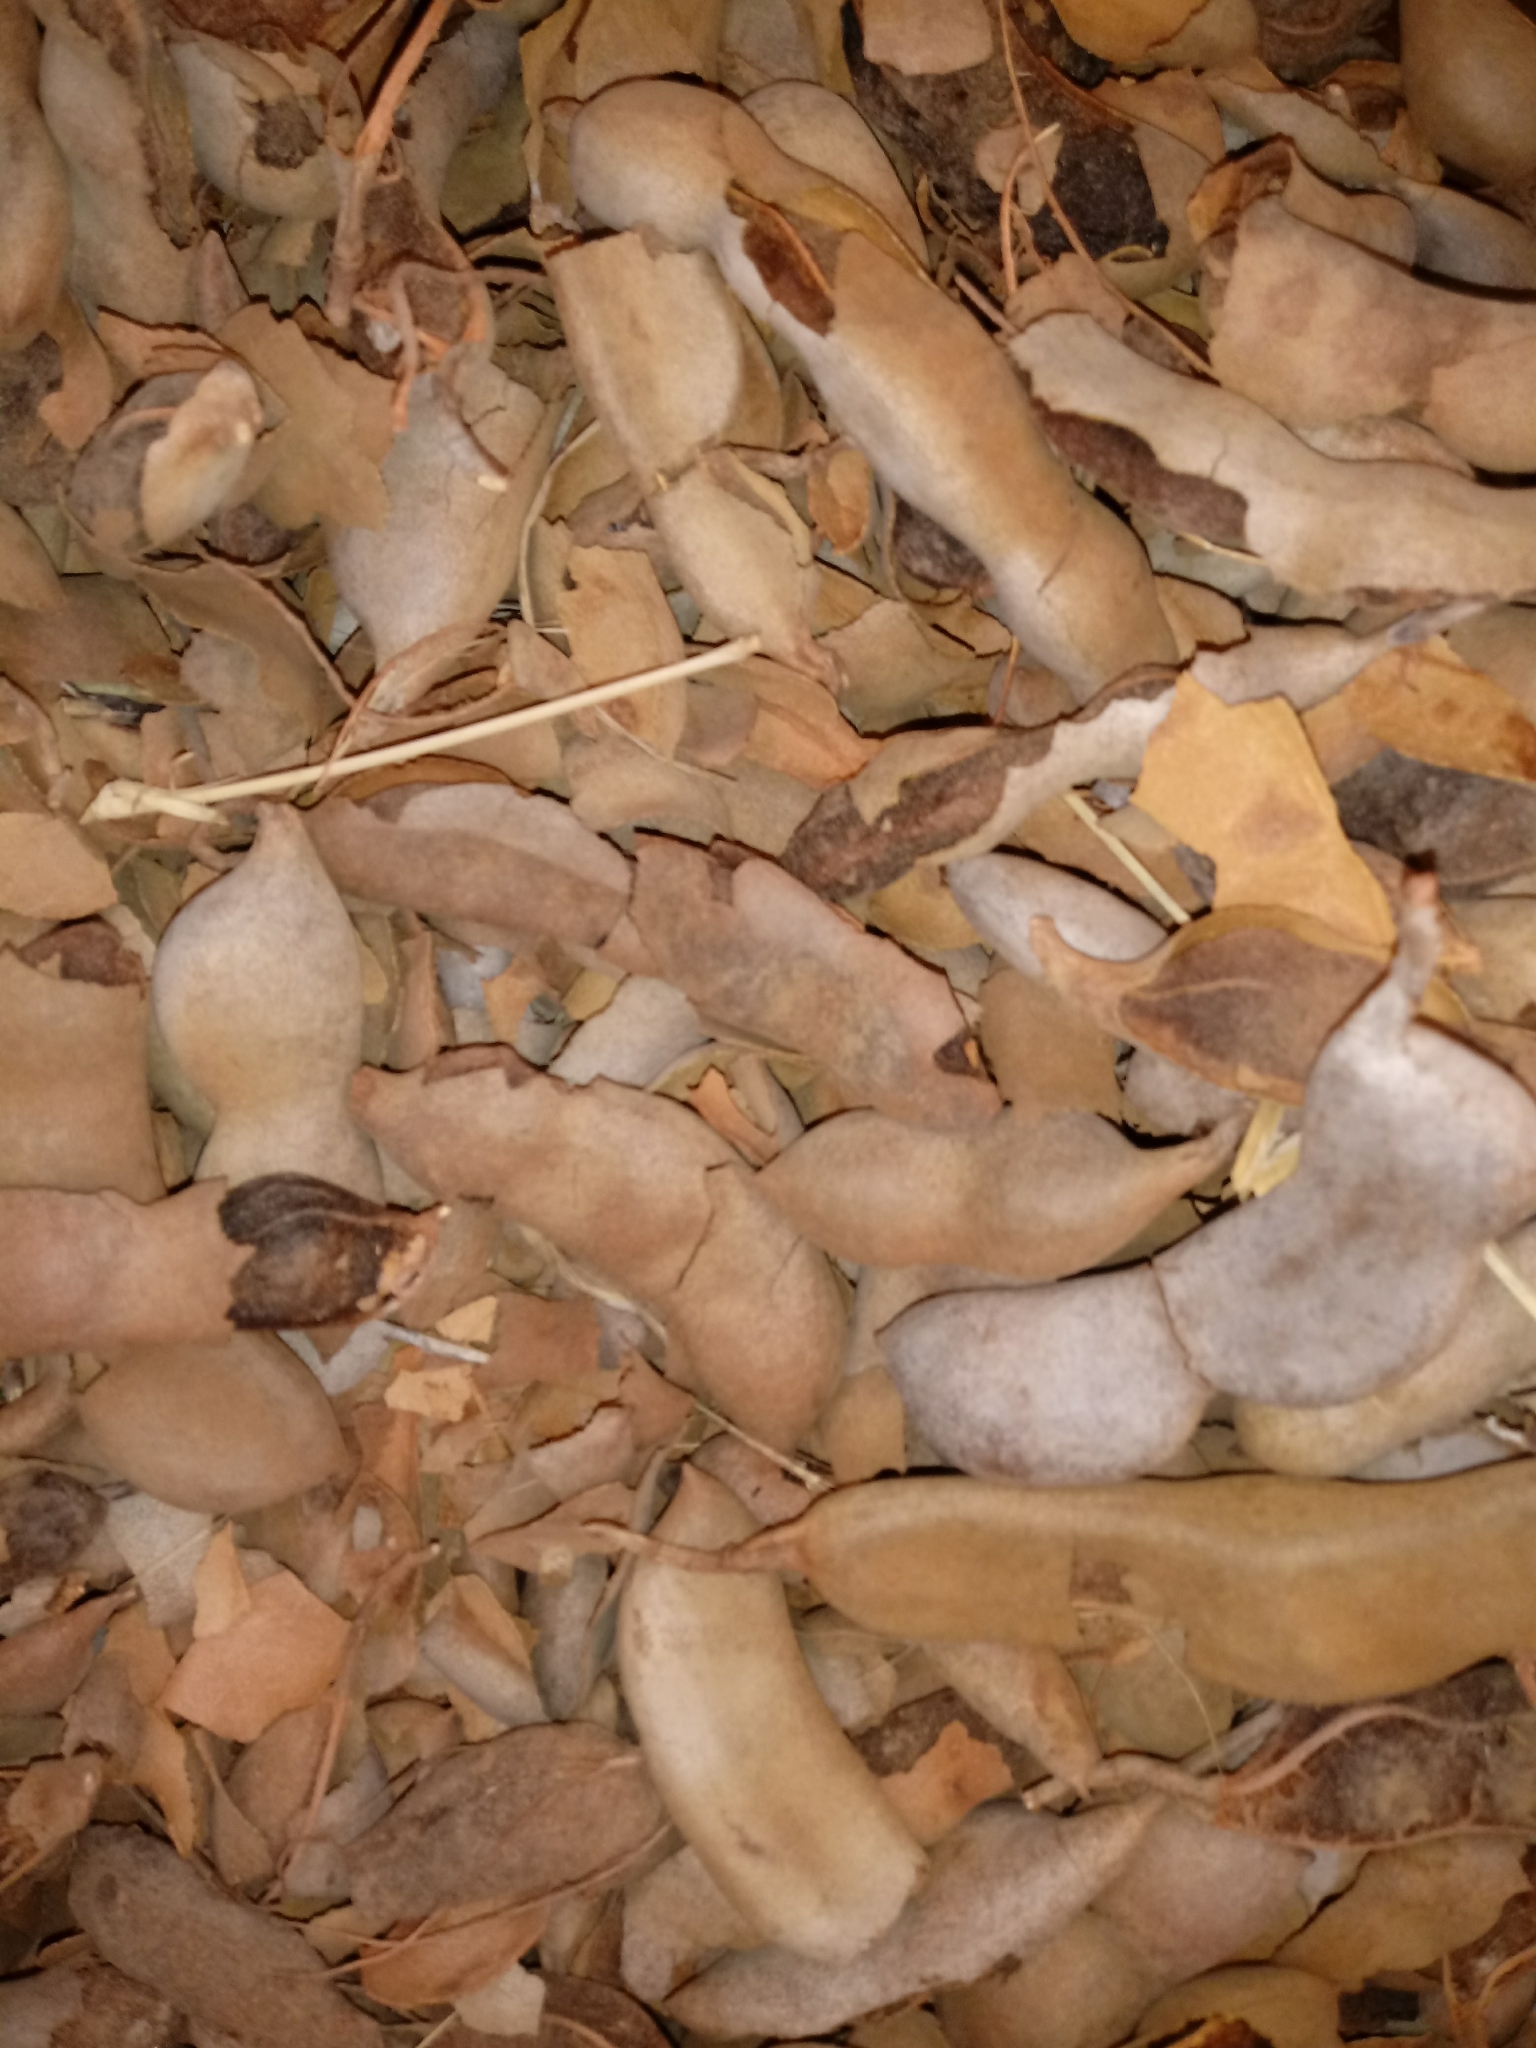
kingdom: Plantae
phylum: Tracheophyta
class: Magnoliopsida
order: Fabales
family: Fabaceae
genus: Tamarindus
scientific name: Tamarindus indica
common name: Tamarind
